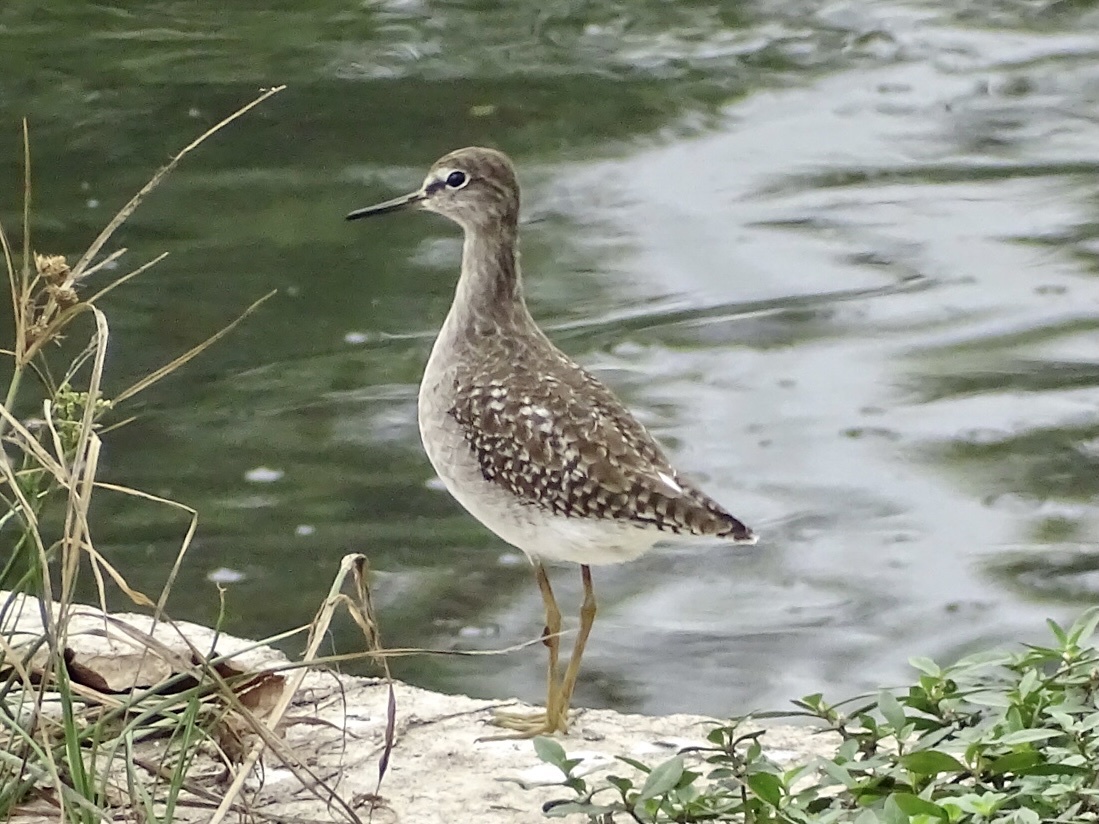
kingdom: Animalia
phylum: Chordata
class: Aves
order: Charadriiformes
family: Scolopacidae
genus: Tringa
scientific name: Tringa glareola
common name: Wood sandpiper
